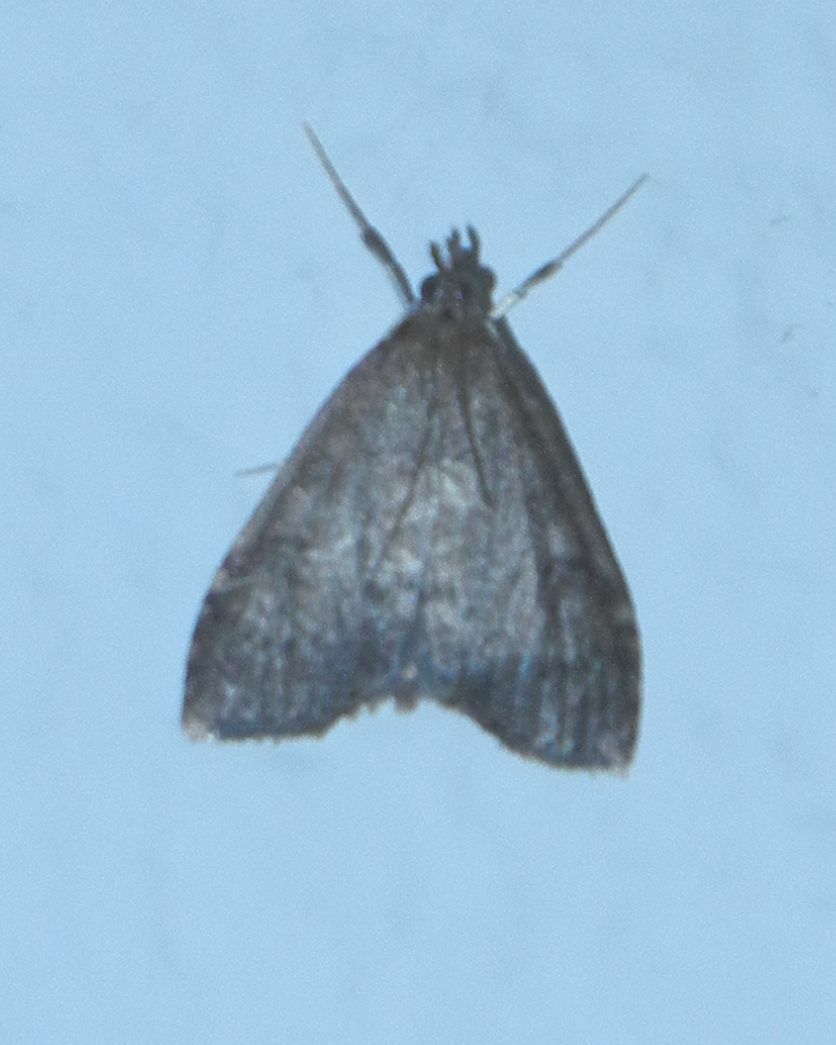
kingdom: Animalia
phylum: Arthropoda
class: Insecta
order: Lepidoptera
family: Crambidae
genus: Udea
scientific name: Udea prunalis
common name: Dusky pearl
